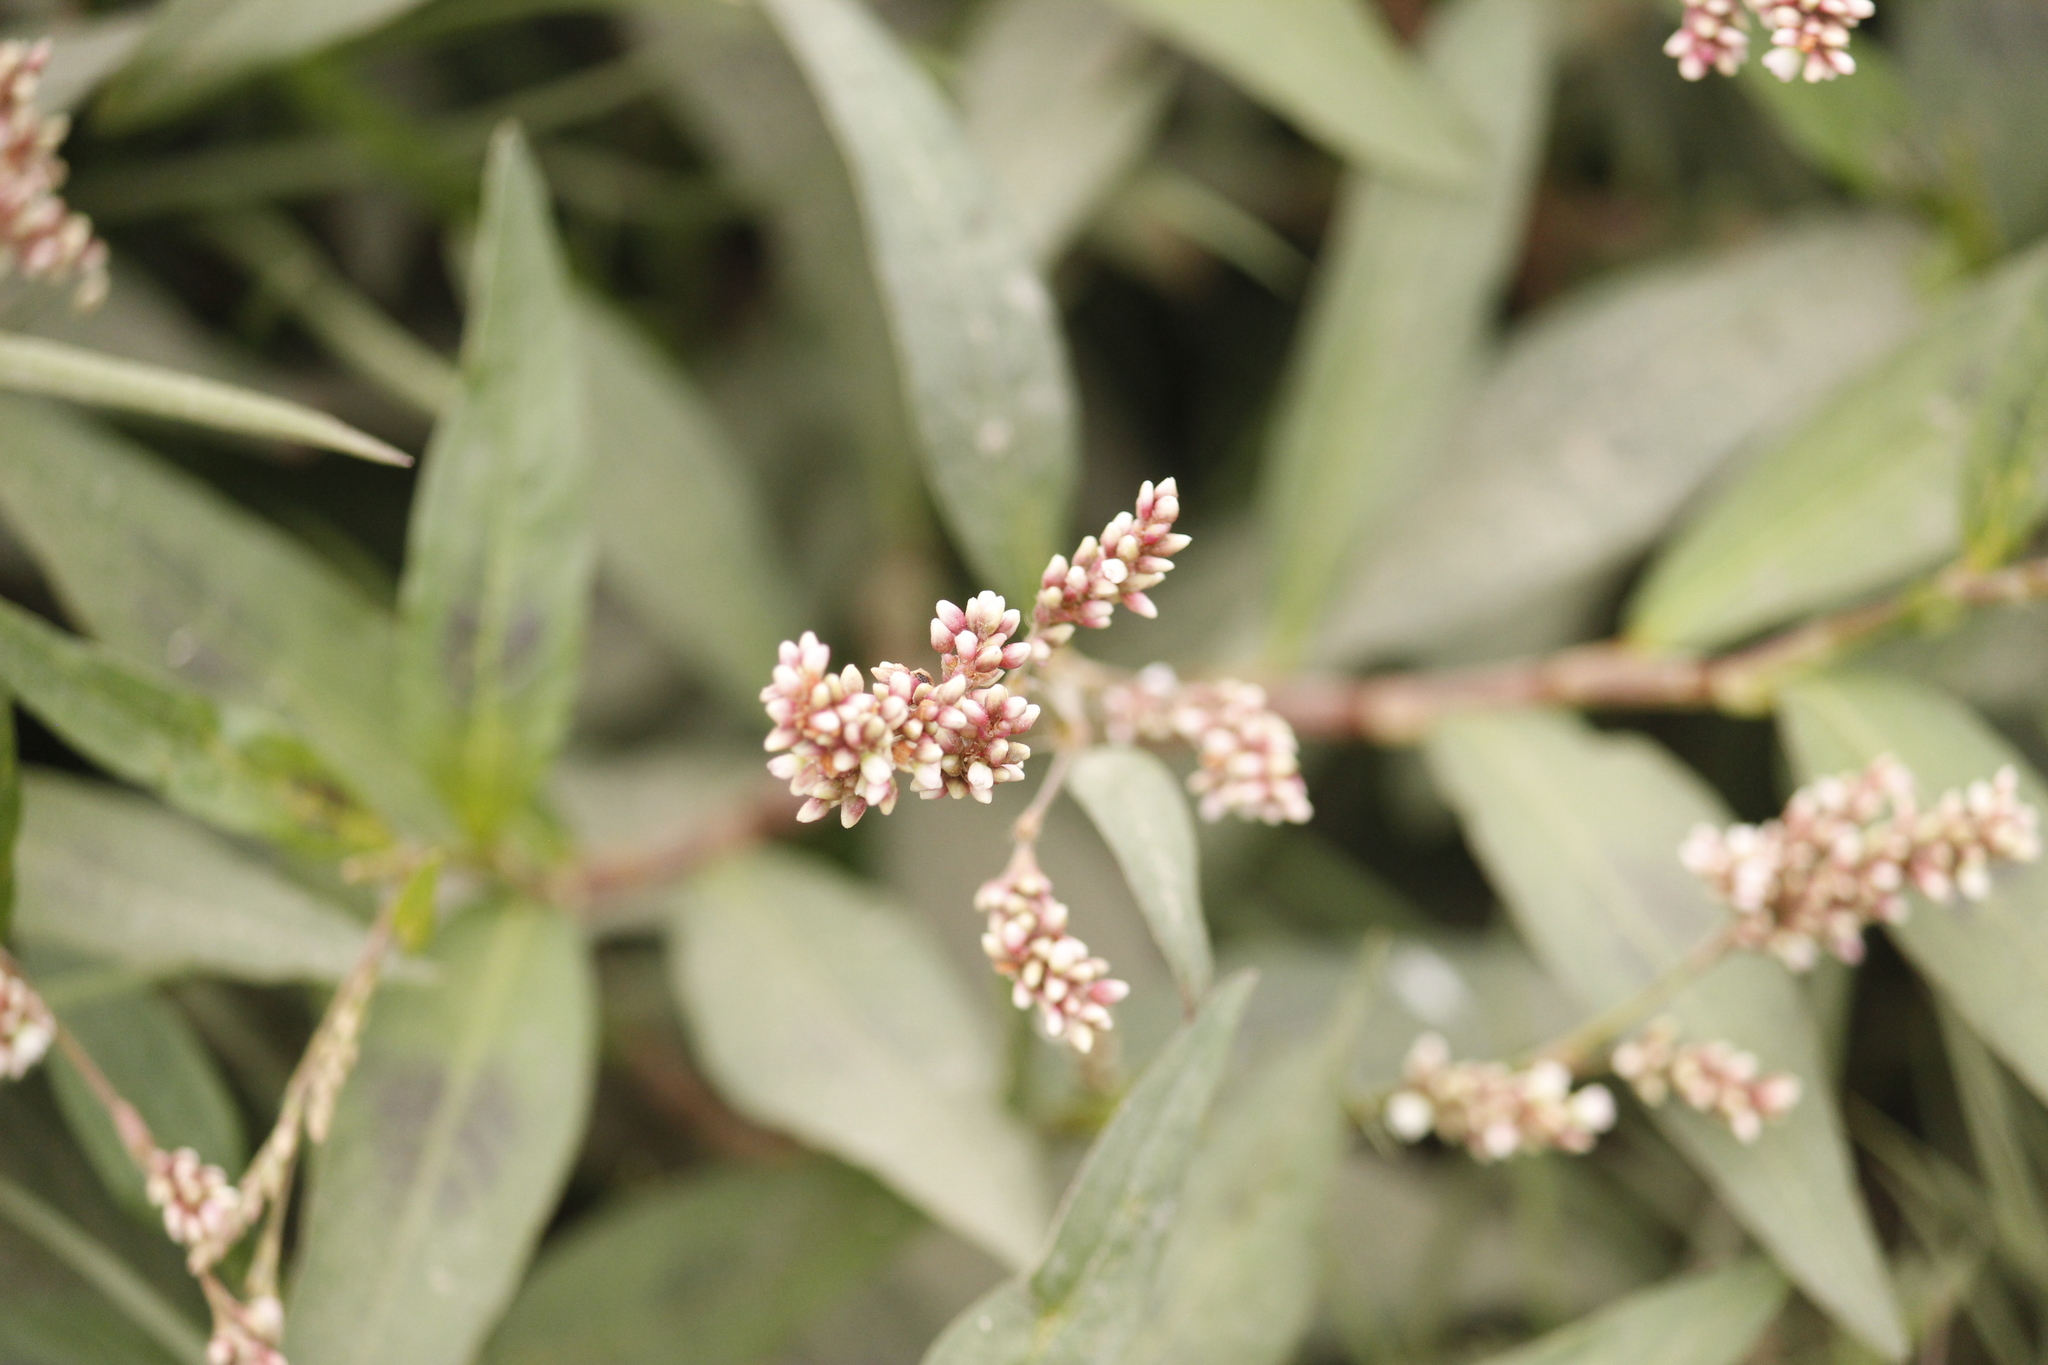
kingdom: Plantae
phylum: Tracheophyta
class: Magnoliopsida
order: Caryophyllales
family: Polygonaceae
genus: Persicaria
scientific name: Persicaria hydropiperoides
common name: Swamp smartweed
